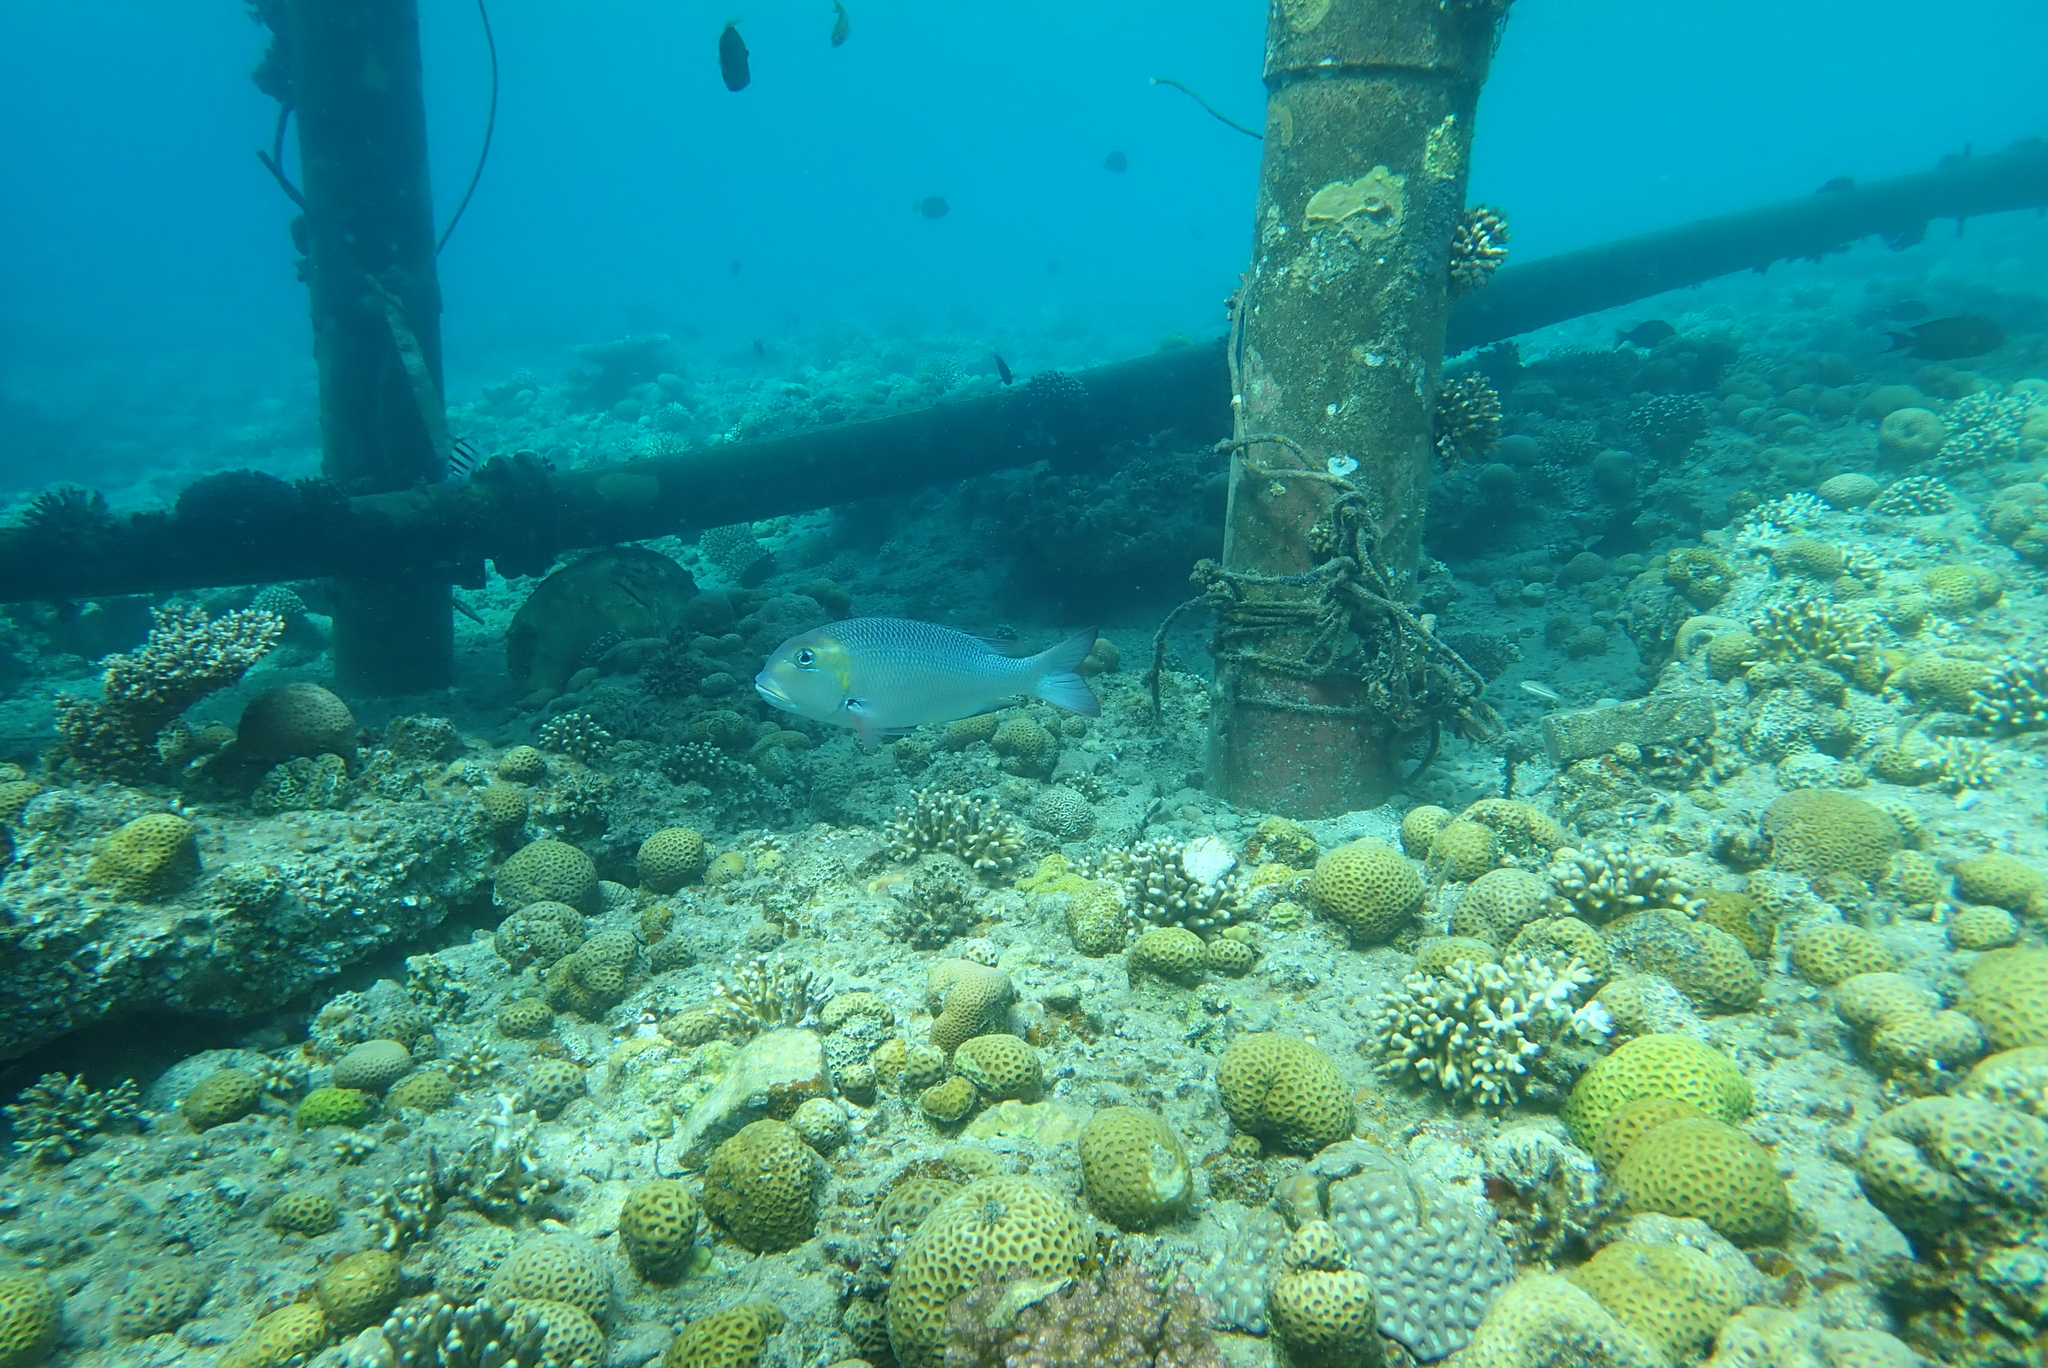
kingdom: Animalia
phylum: Chordata
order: Perciformes
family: Lethrinidae
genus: Monotaxis
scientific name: Monotaxis grandoculis
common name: Bigeye emperor
